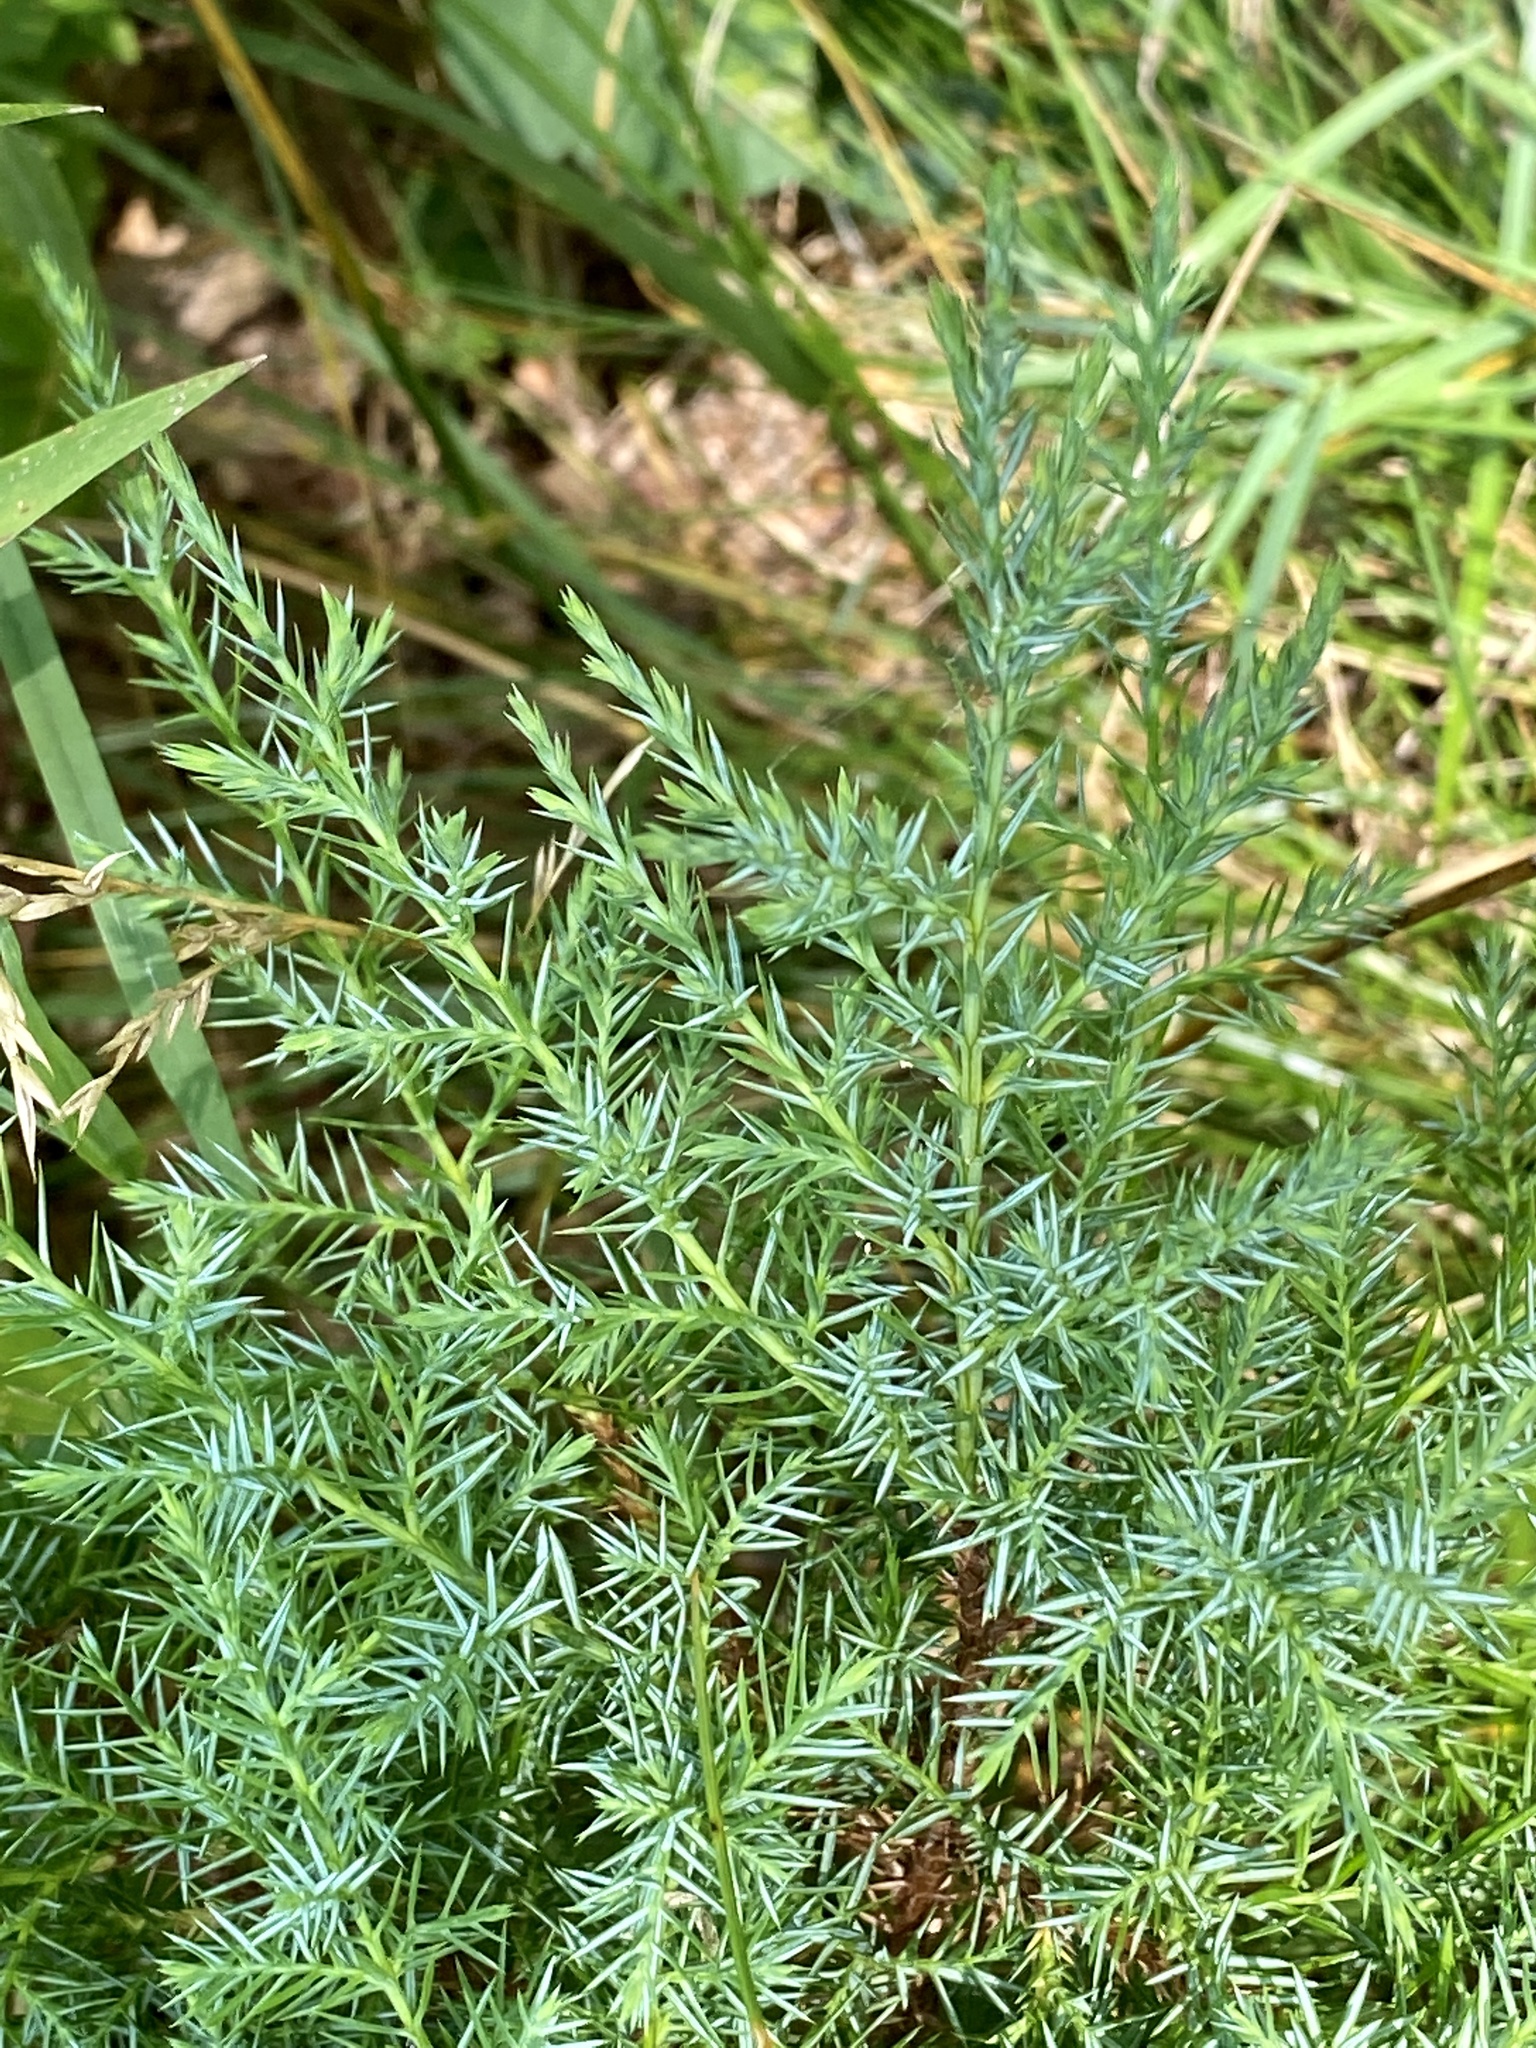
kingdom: Plantae
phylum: Tracheophyta
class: Pinopsida
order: Pinales
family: Cupressaceae
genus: Juniperus
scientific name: Juniperus virginiana
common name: Red juniper
